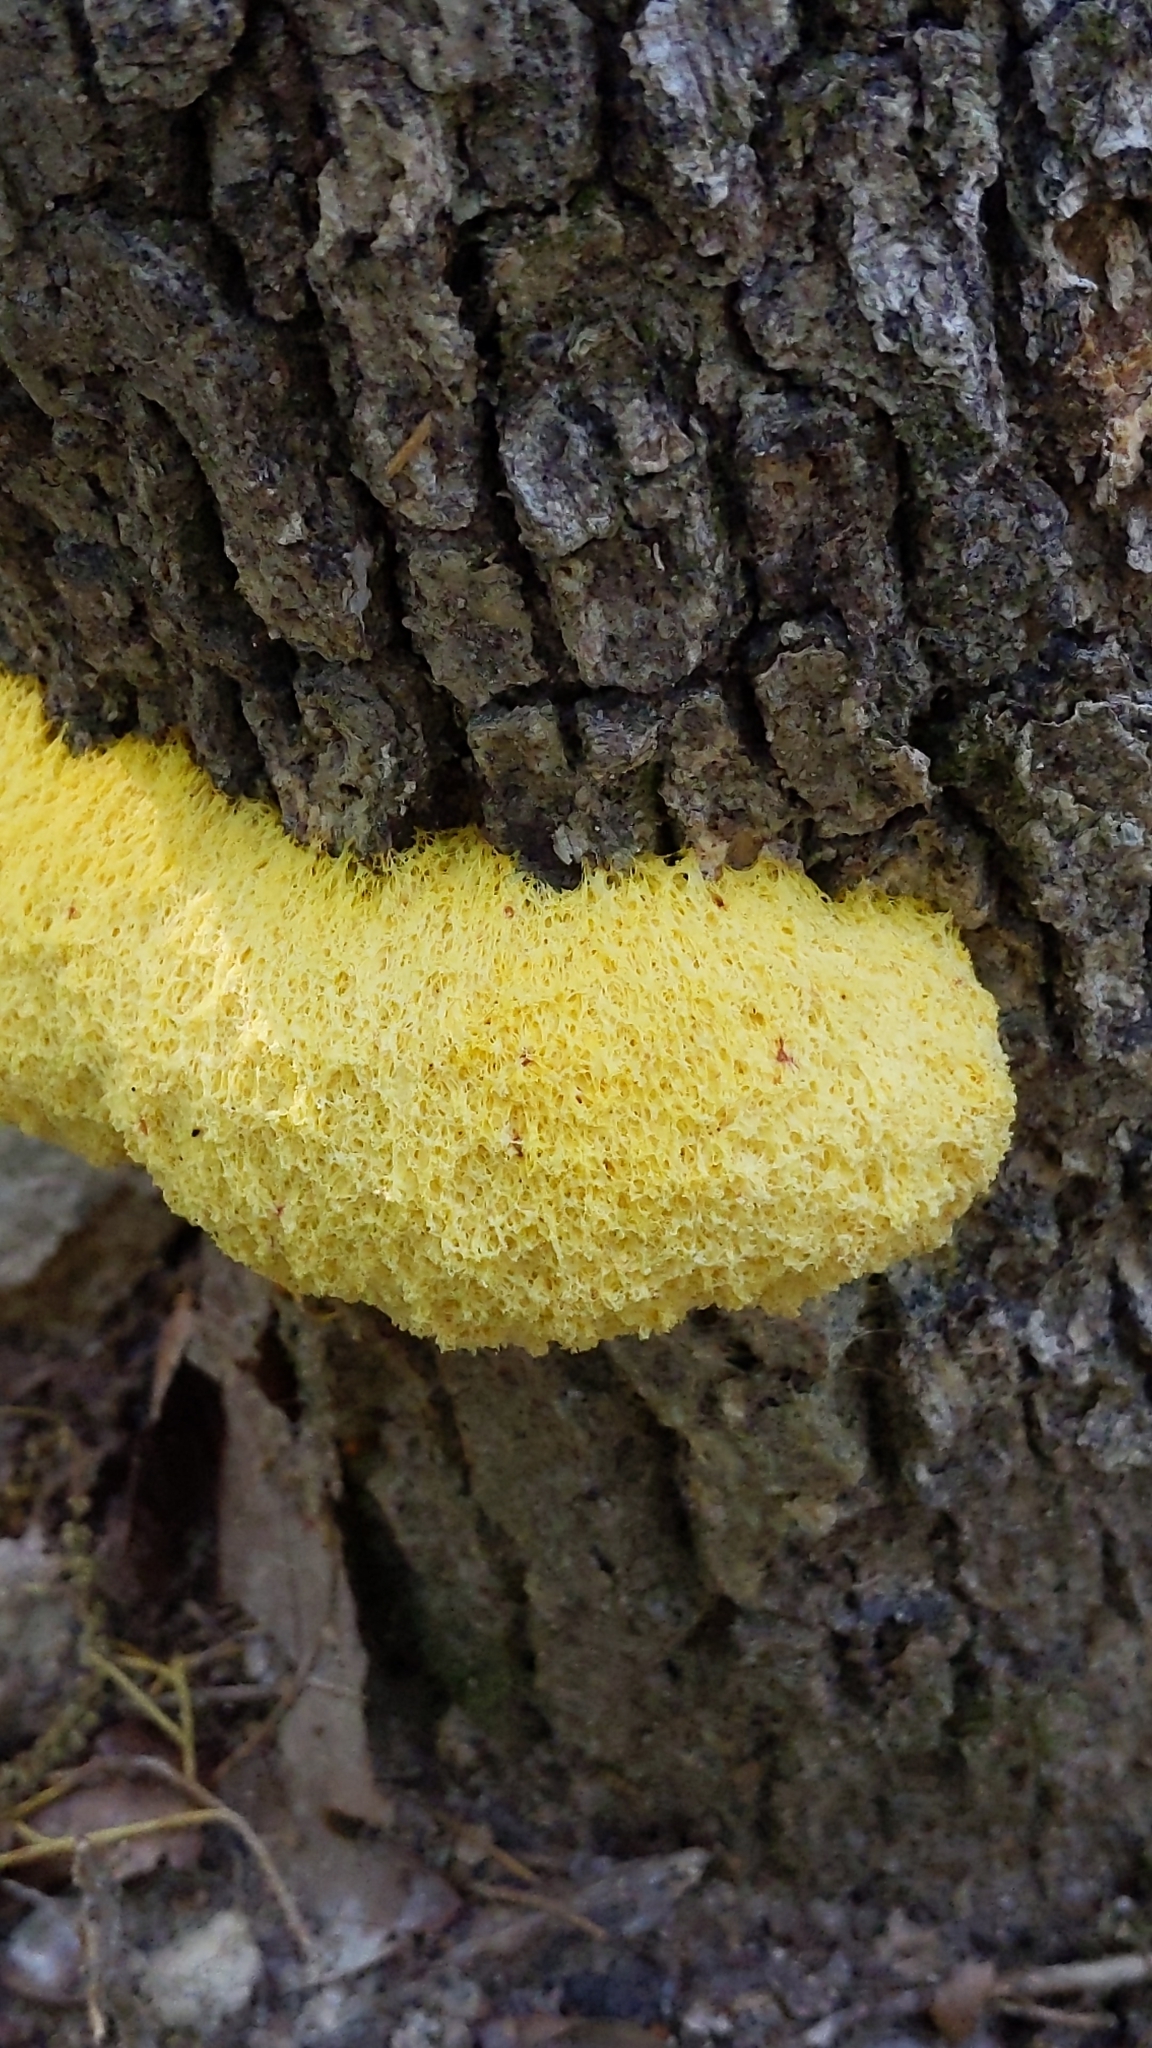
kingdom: Protozoa
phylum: Mycetozoa
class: Myxomycetes
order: Physarales
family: Physaraceae
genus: Fuligo
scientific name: Fuligo septica
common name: Dog vomit slime mold
